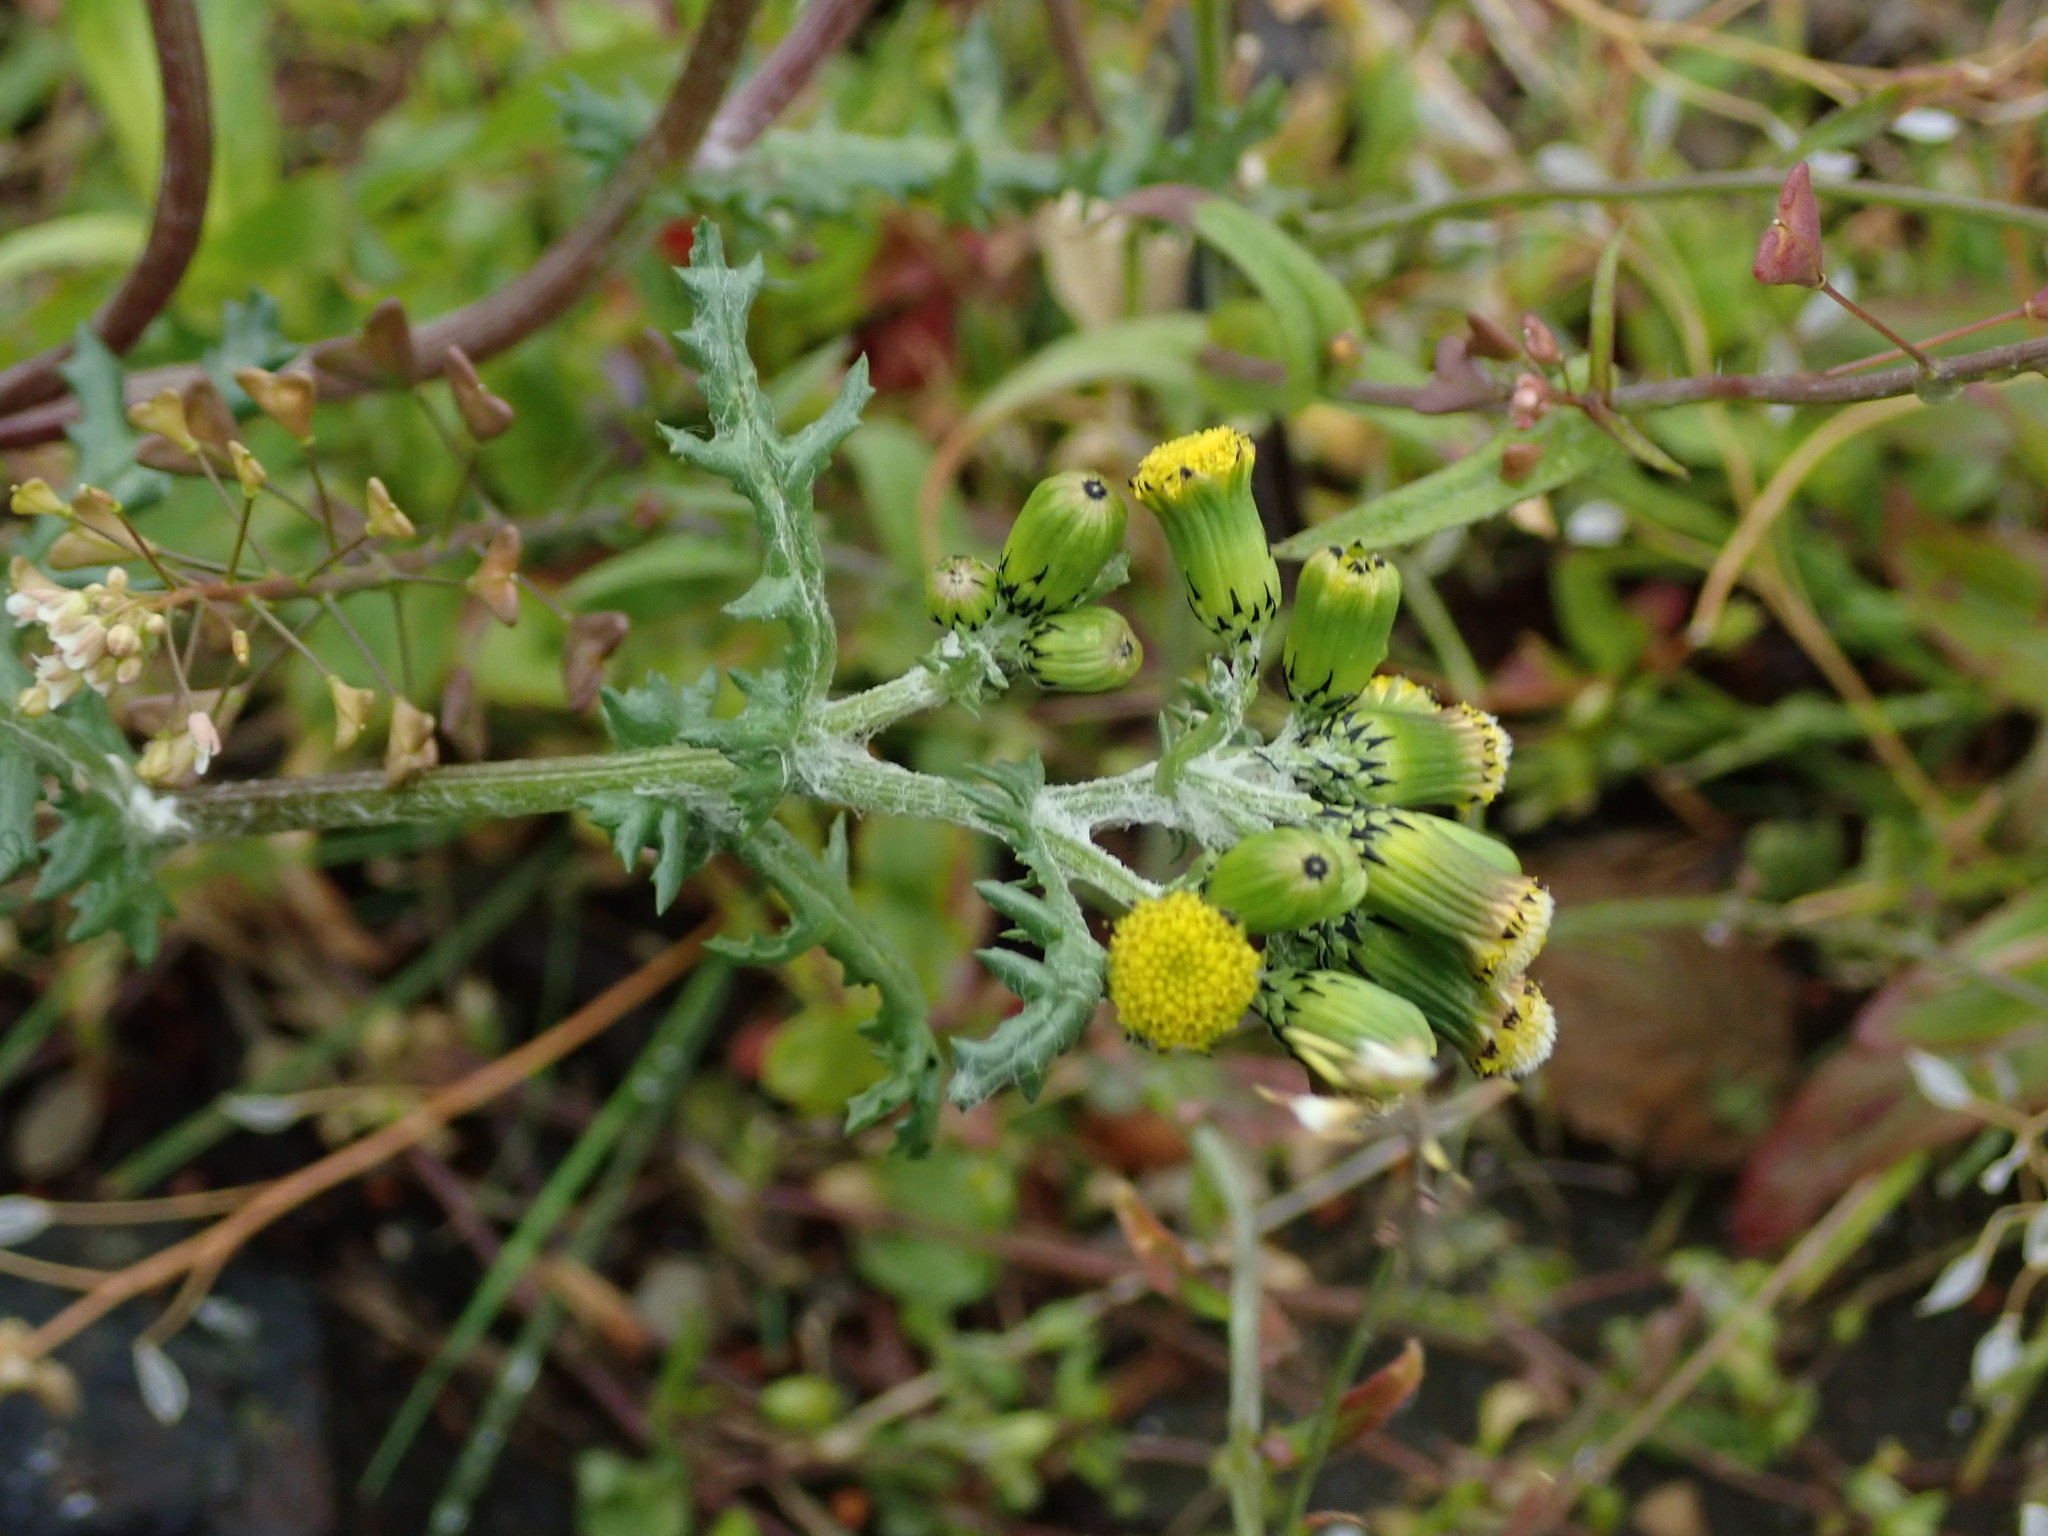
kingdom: Plantae
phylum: Tracheophyta
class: Magnoliopsida
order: Asterales
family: Asteraceae
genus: Senecio
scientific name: Senecio vulgaris
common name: Old-man-in-the-spring
